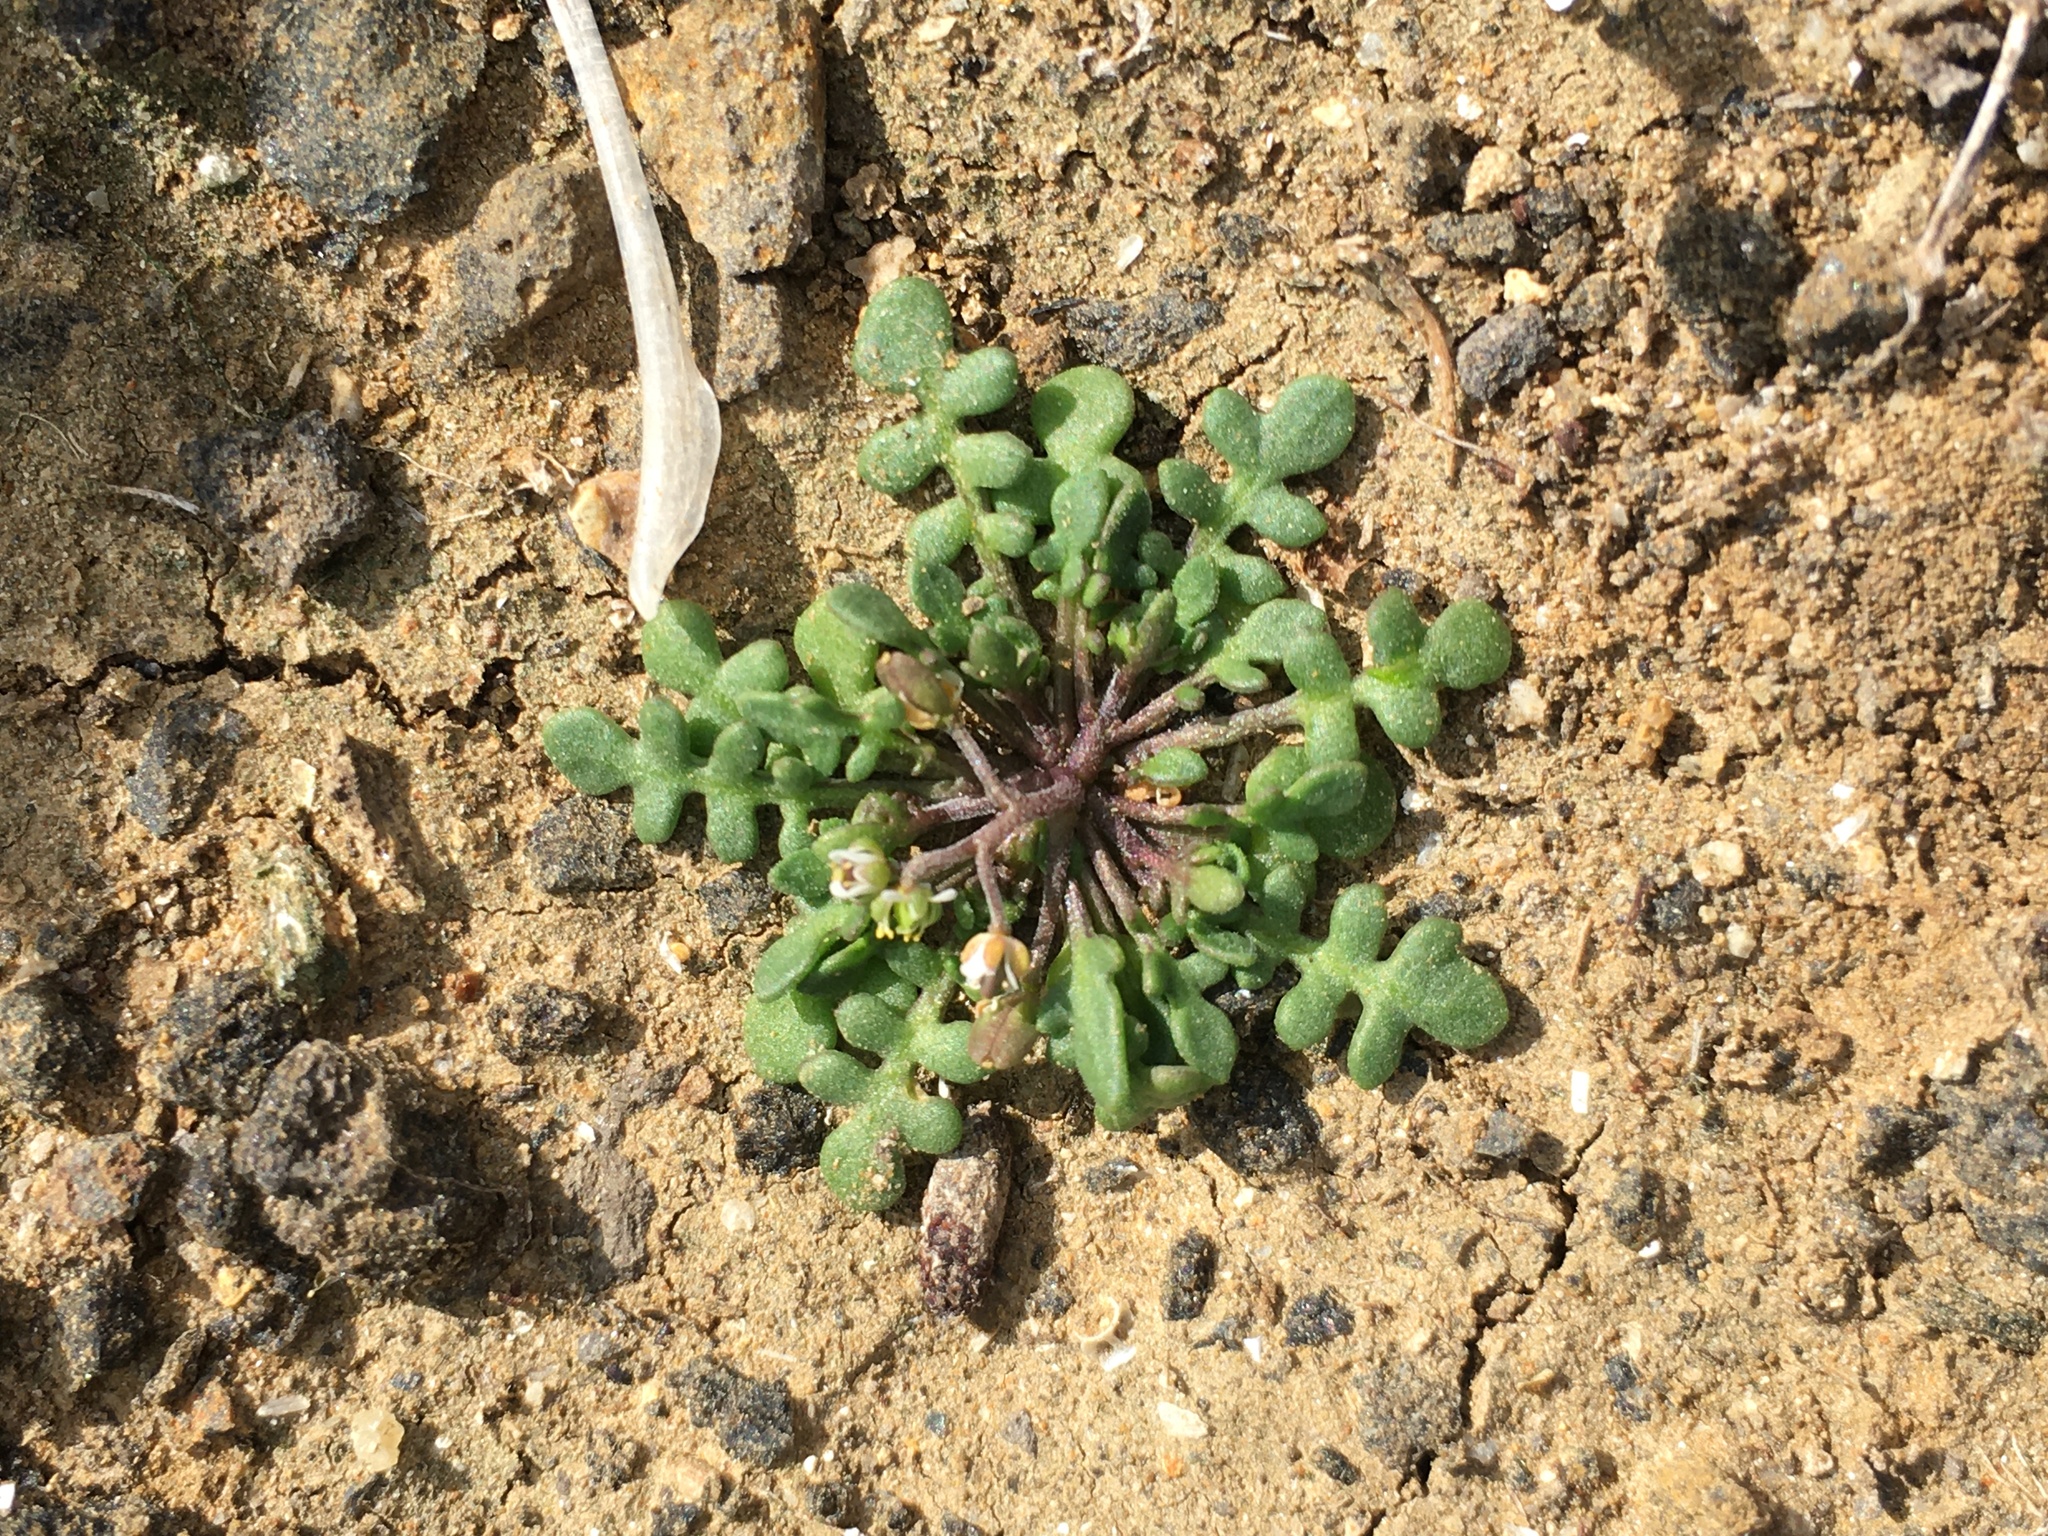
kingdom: Plantae
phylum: Tracheophyta
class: Magnoliopsida
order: Brassicales
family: Brassicaceae
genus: Hornungia
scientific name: Hornungia procumbens
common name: Oval purse
